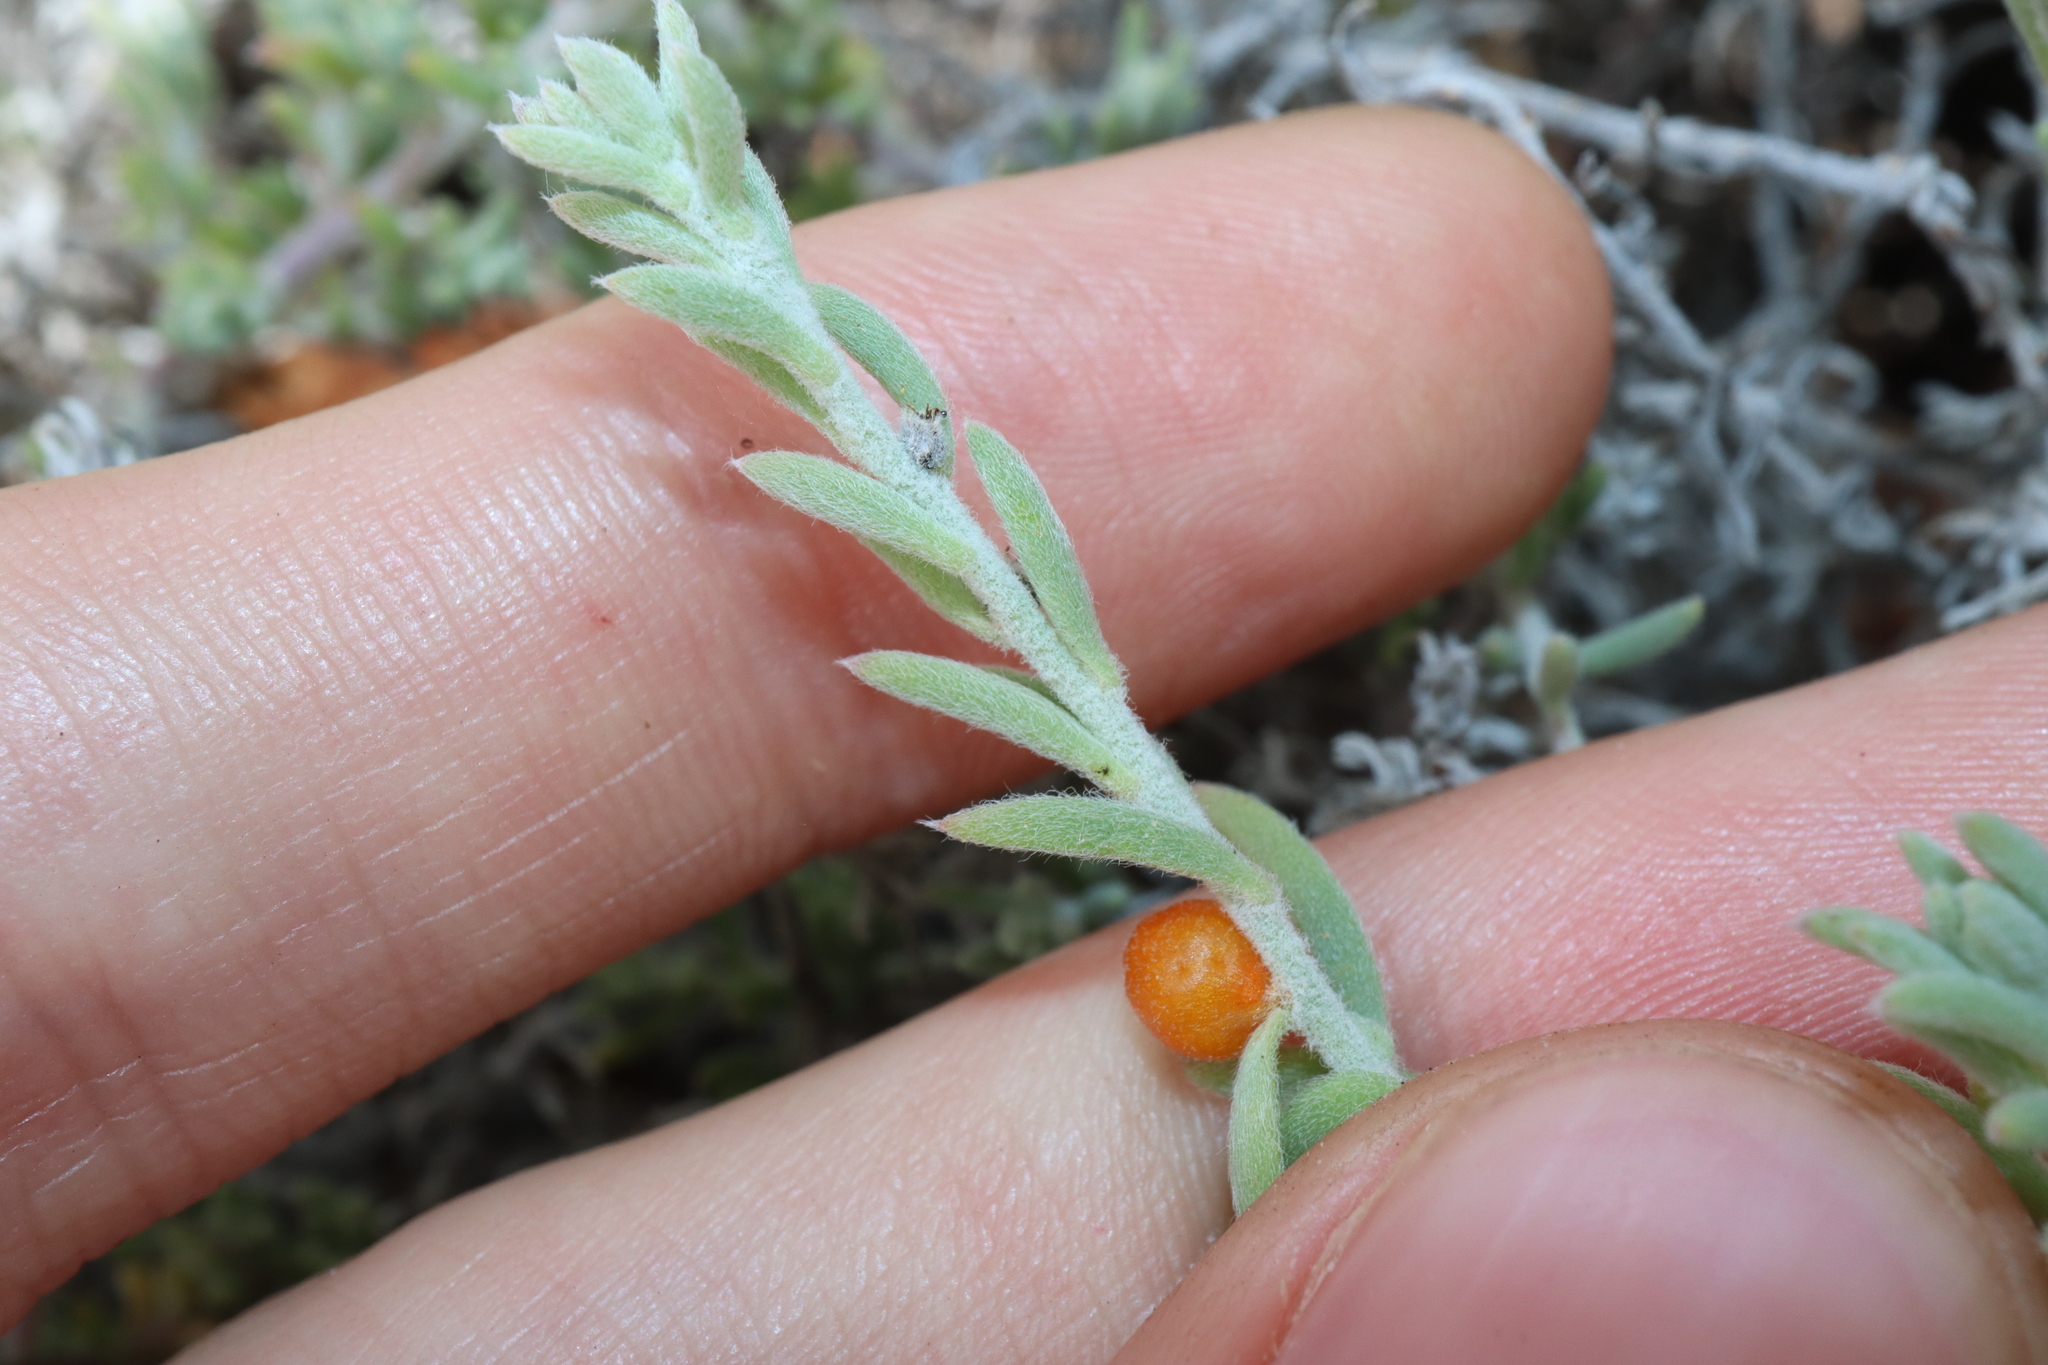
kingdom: Plantae
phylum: Tracheophyta
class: Magnoliopsida
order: Caryophyllales
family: Amaranthaceae
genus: Enchylaena
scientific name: Enchylaena tomentosa
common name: Ruby saltbush
